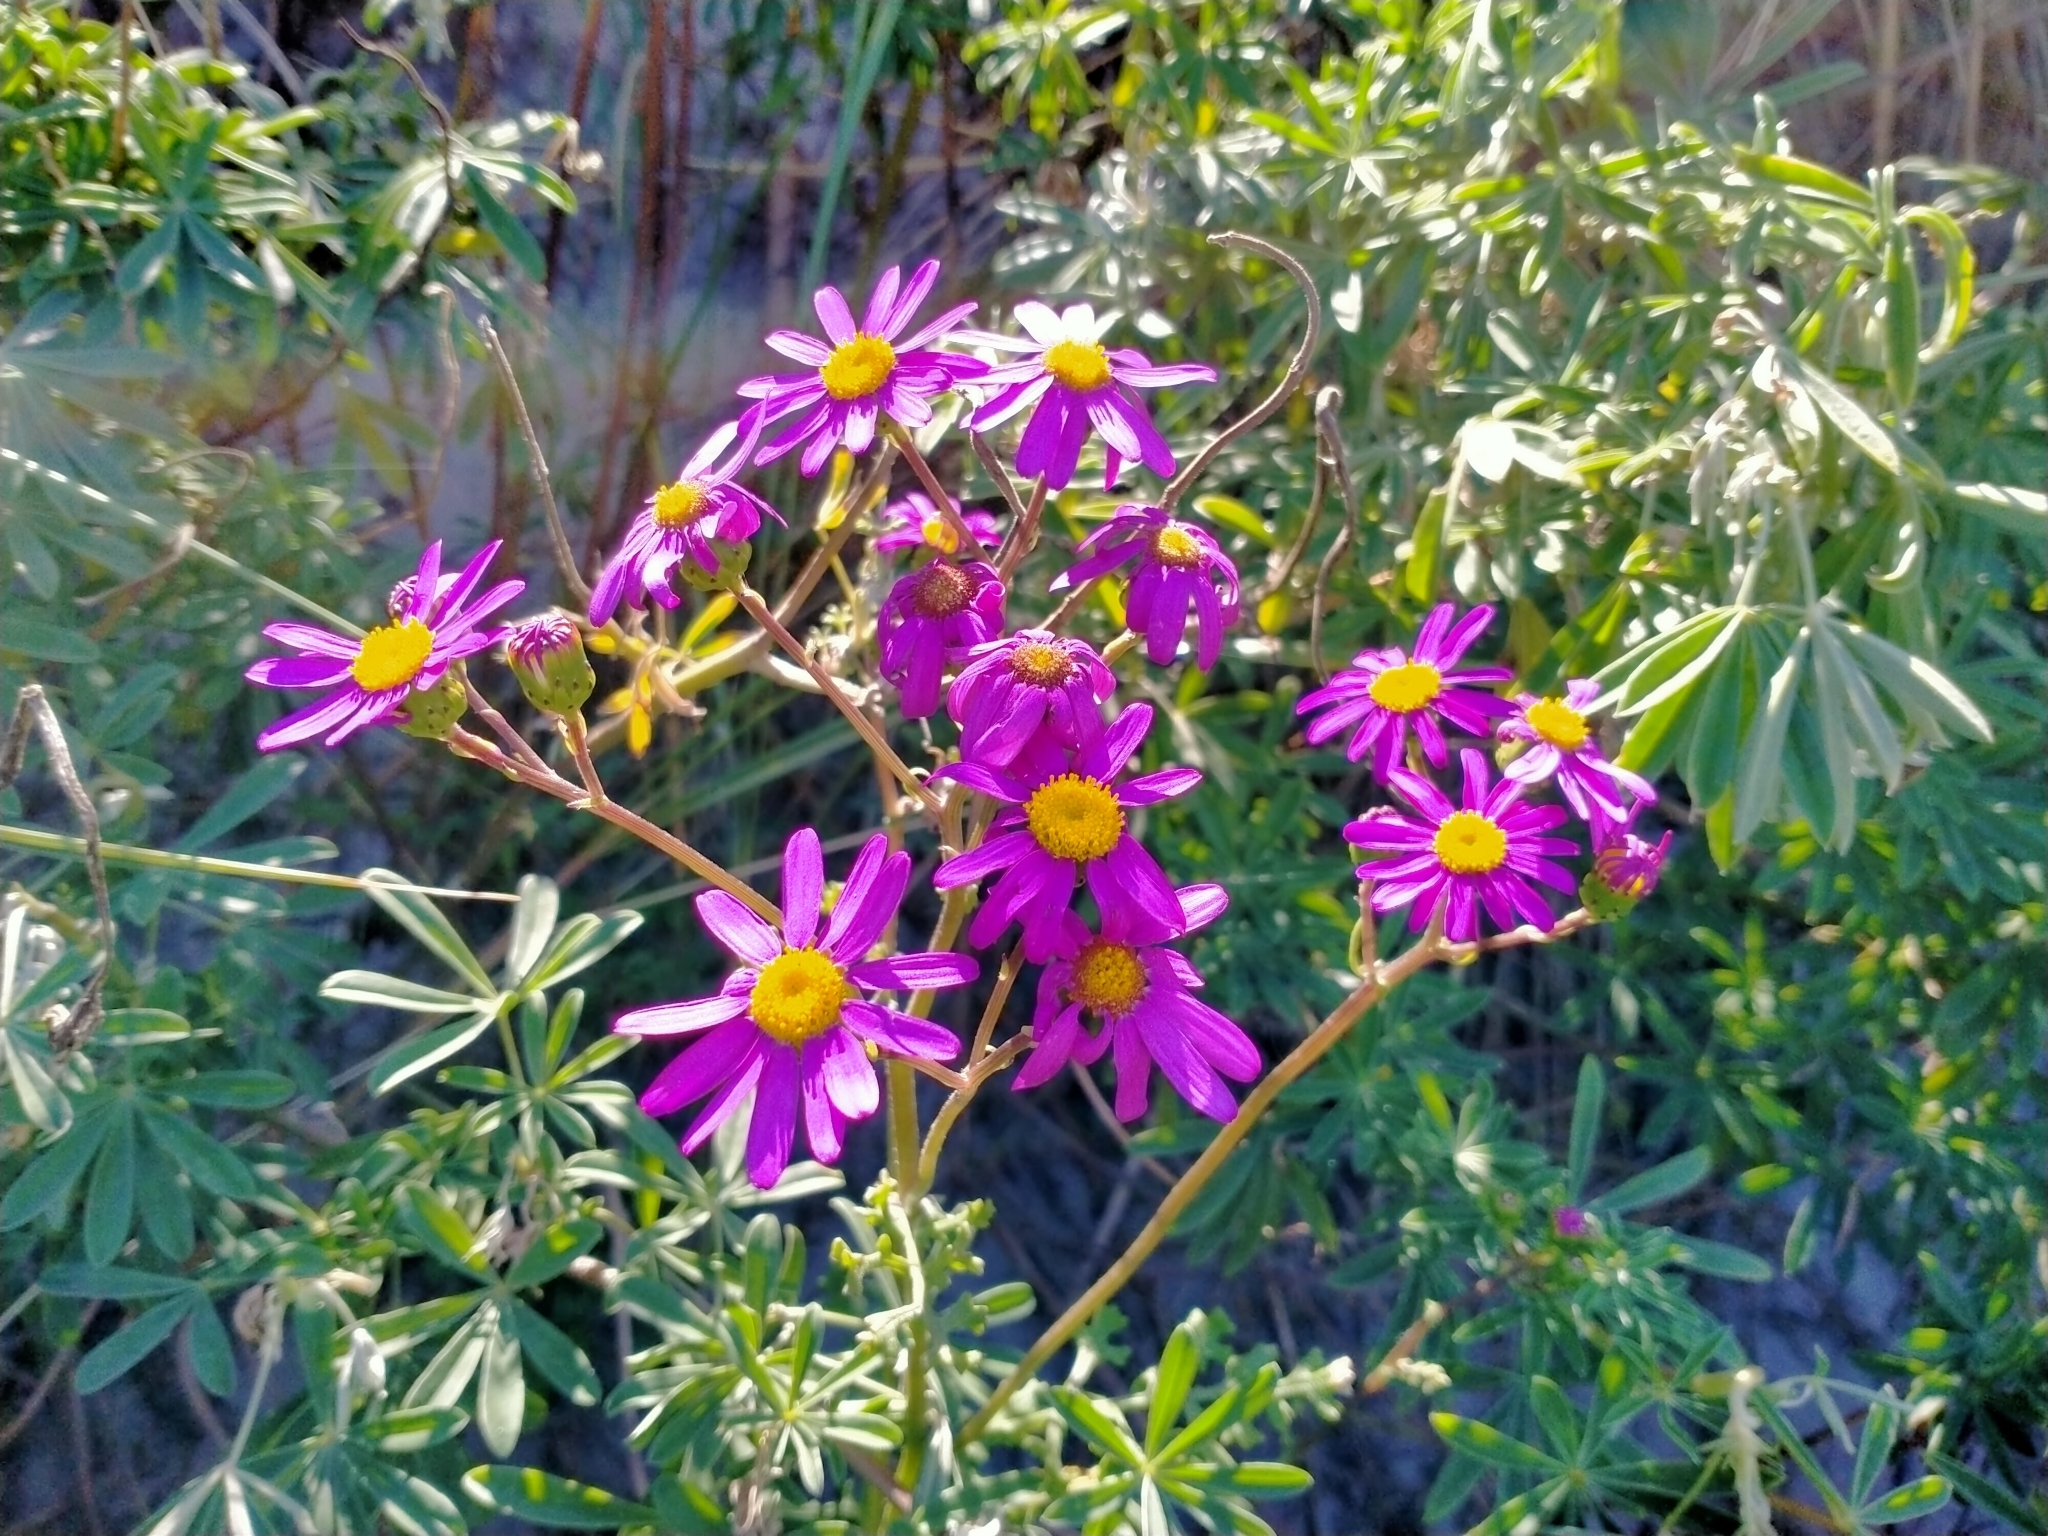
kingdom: Plantae
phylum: Tracheophyta
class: Magnoliopsida
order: Asterales
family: Asteraceae
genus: Senecio
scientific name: Senecio elegans
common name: Purple groundsel
